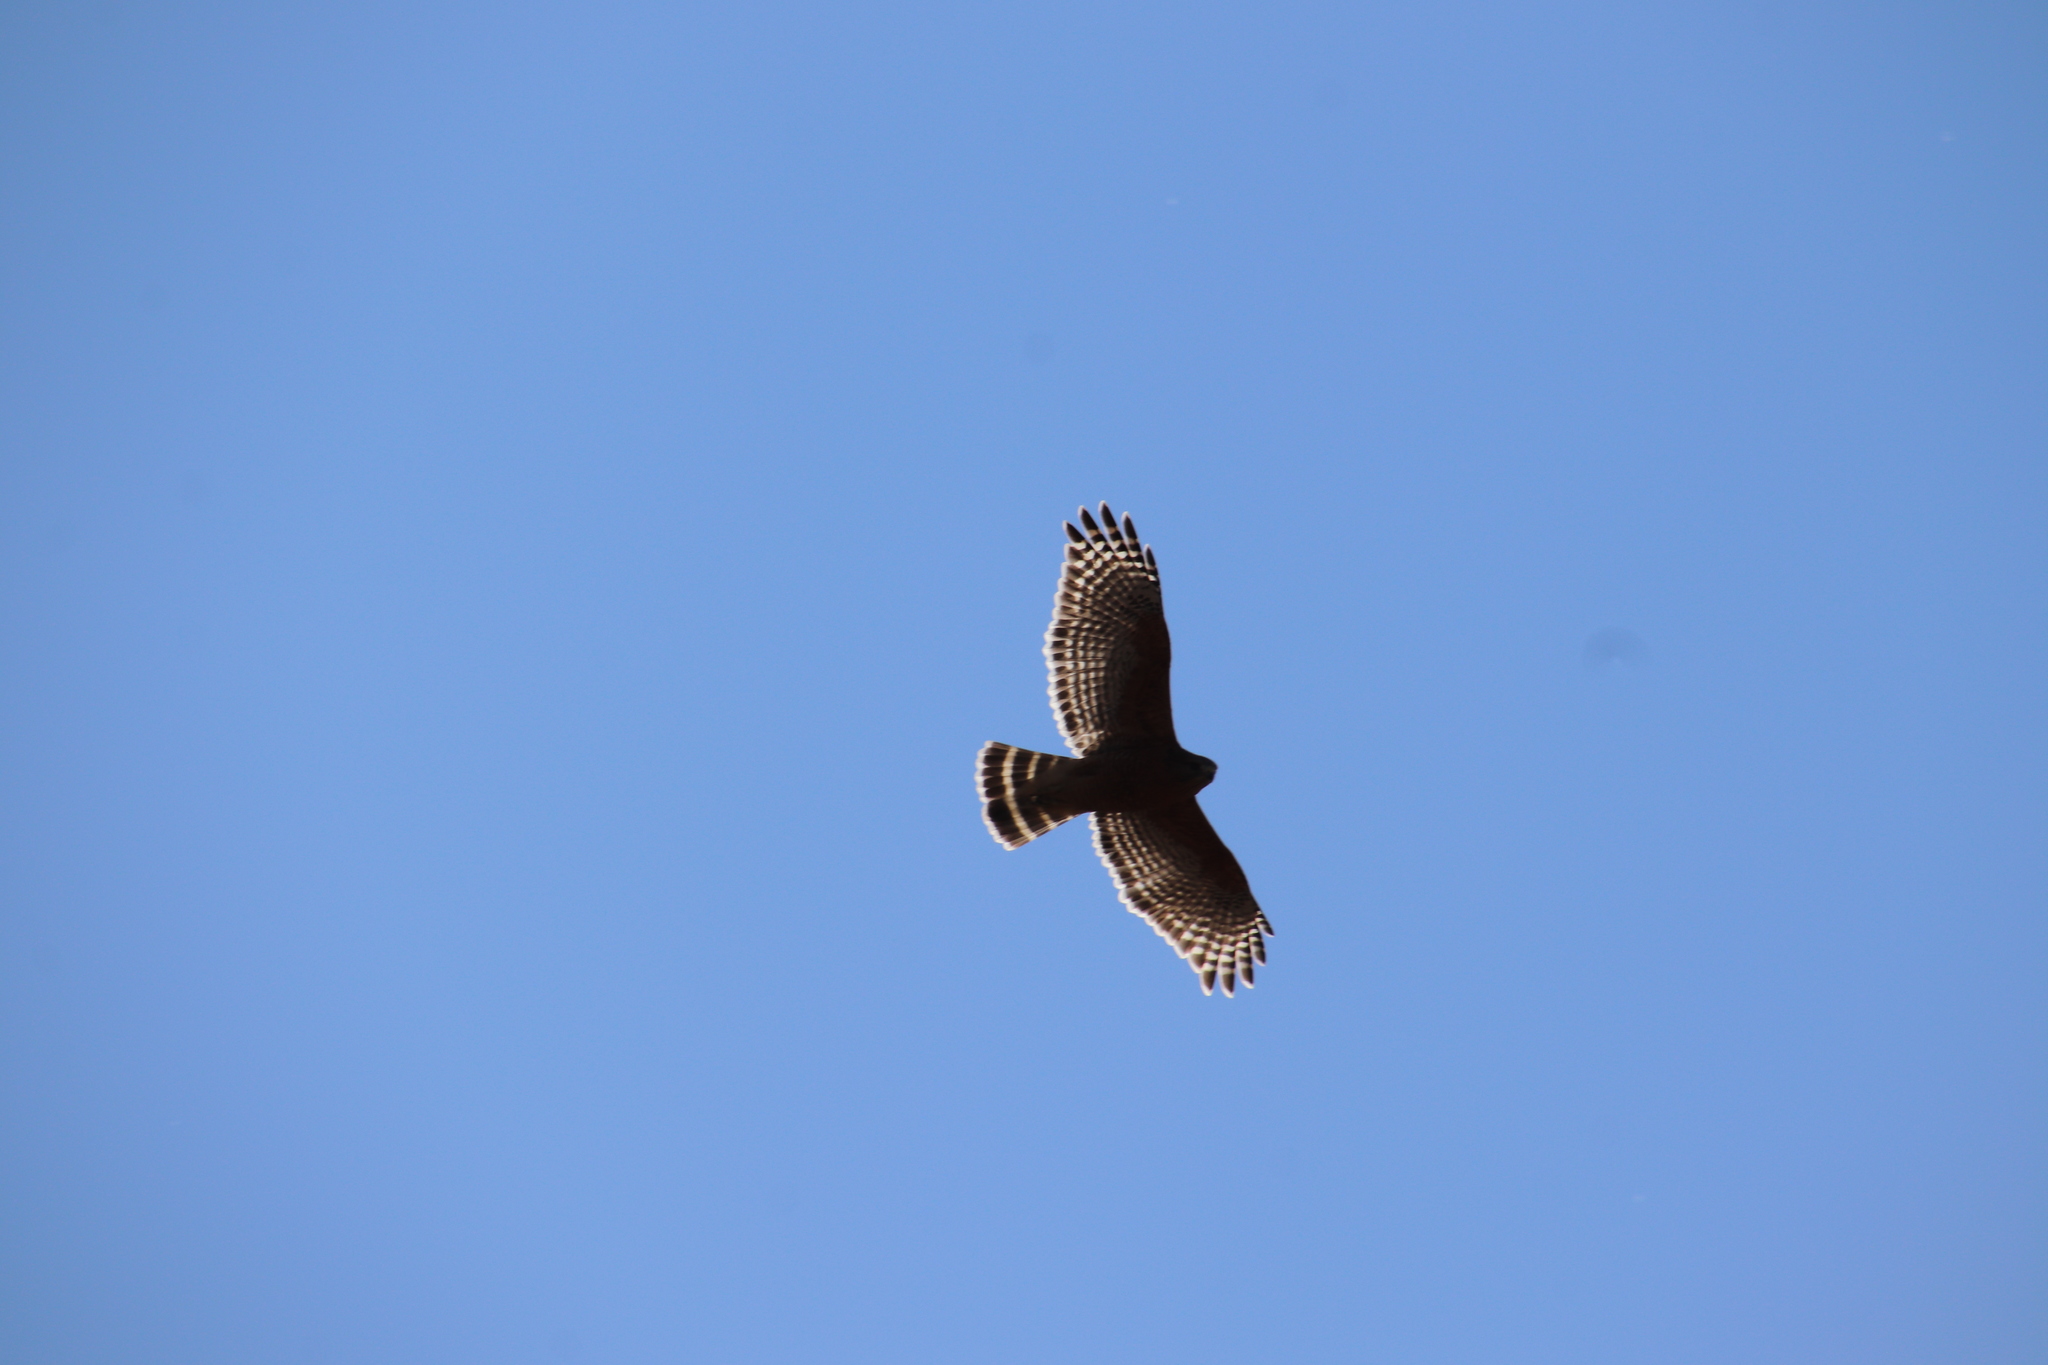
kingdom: Animalia
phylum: Chordata
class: Aves
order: Accipitriformes
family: Accipitridae
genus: Buteo
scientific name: Buteo lineatus
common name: Red-shouldered hawk
